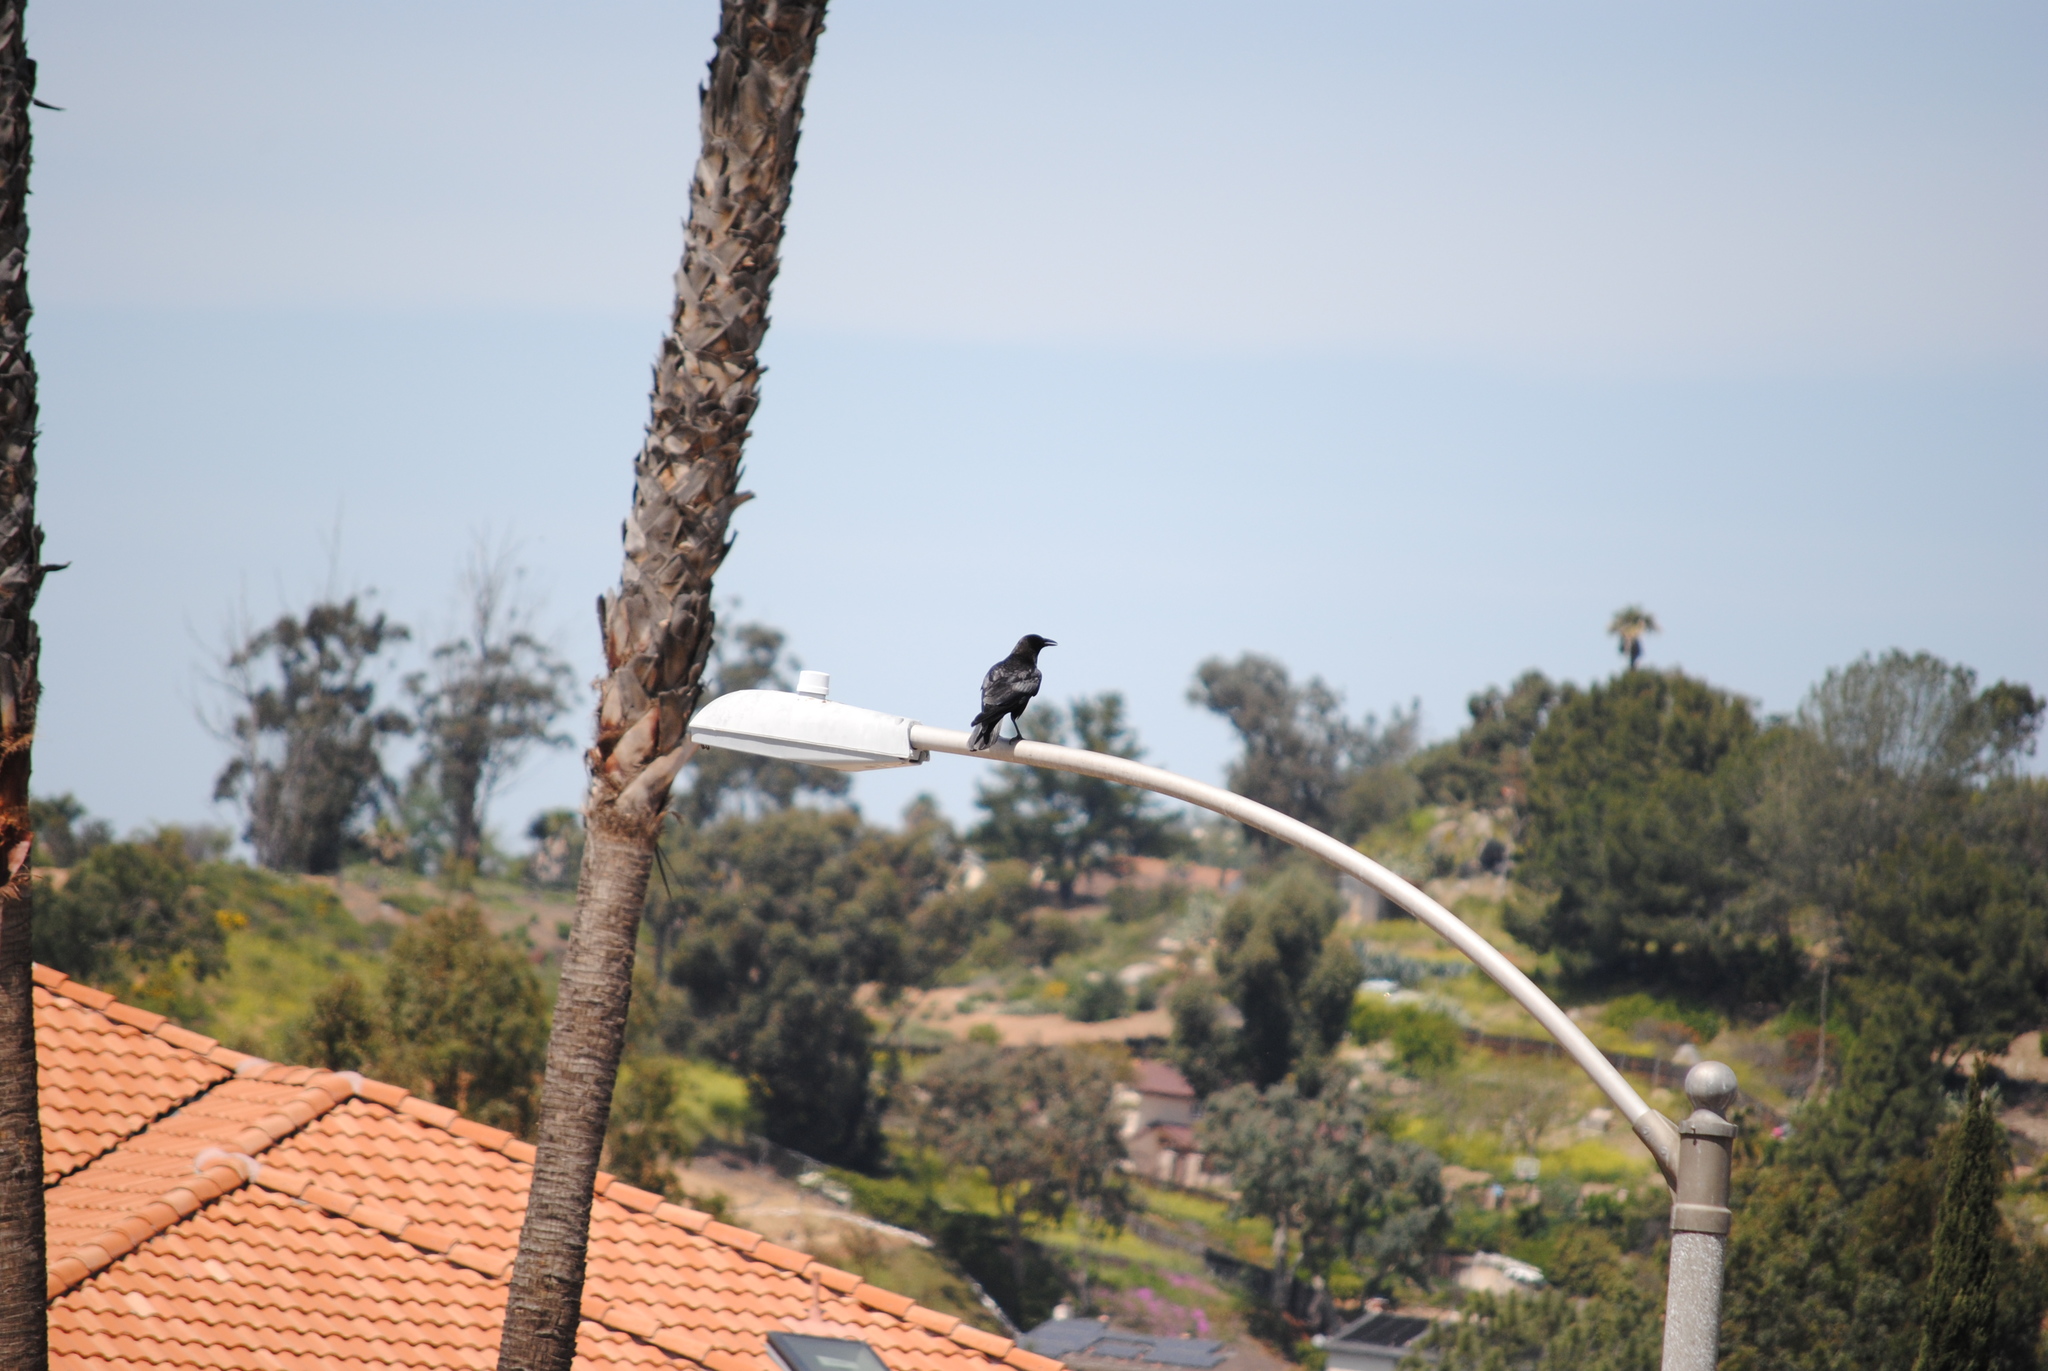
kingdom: Animalia
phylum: Chordata
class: Aves
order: Passeriformes
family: Corvidae
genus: Corvus
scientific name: Corvus brachyrhynchos
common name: American crow
